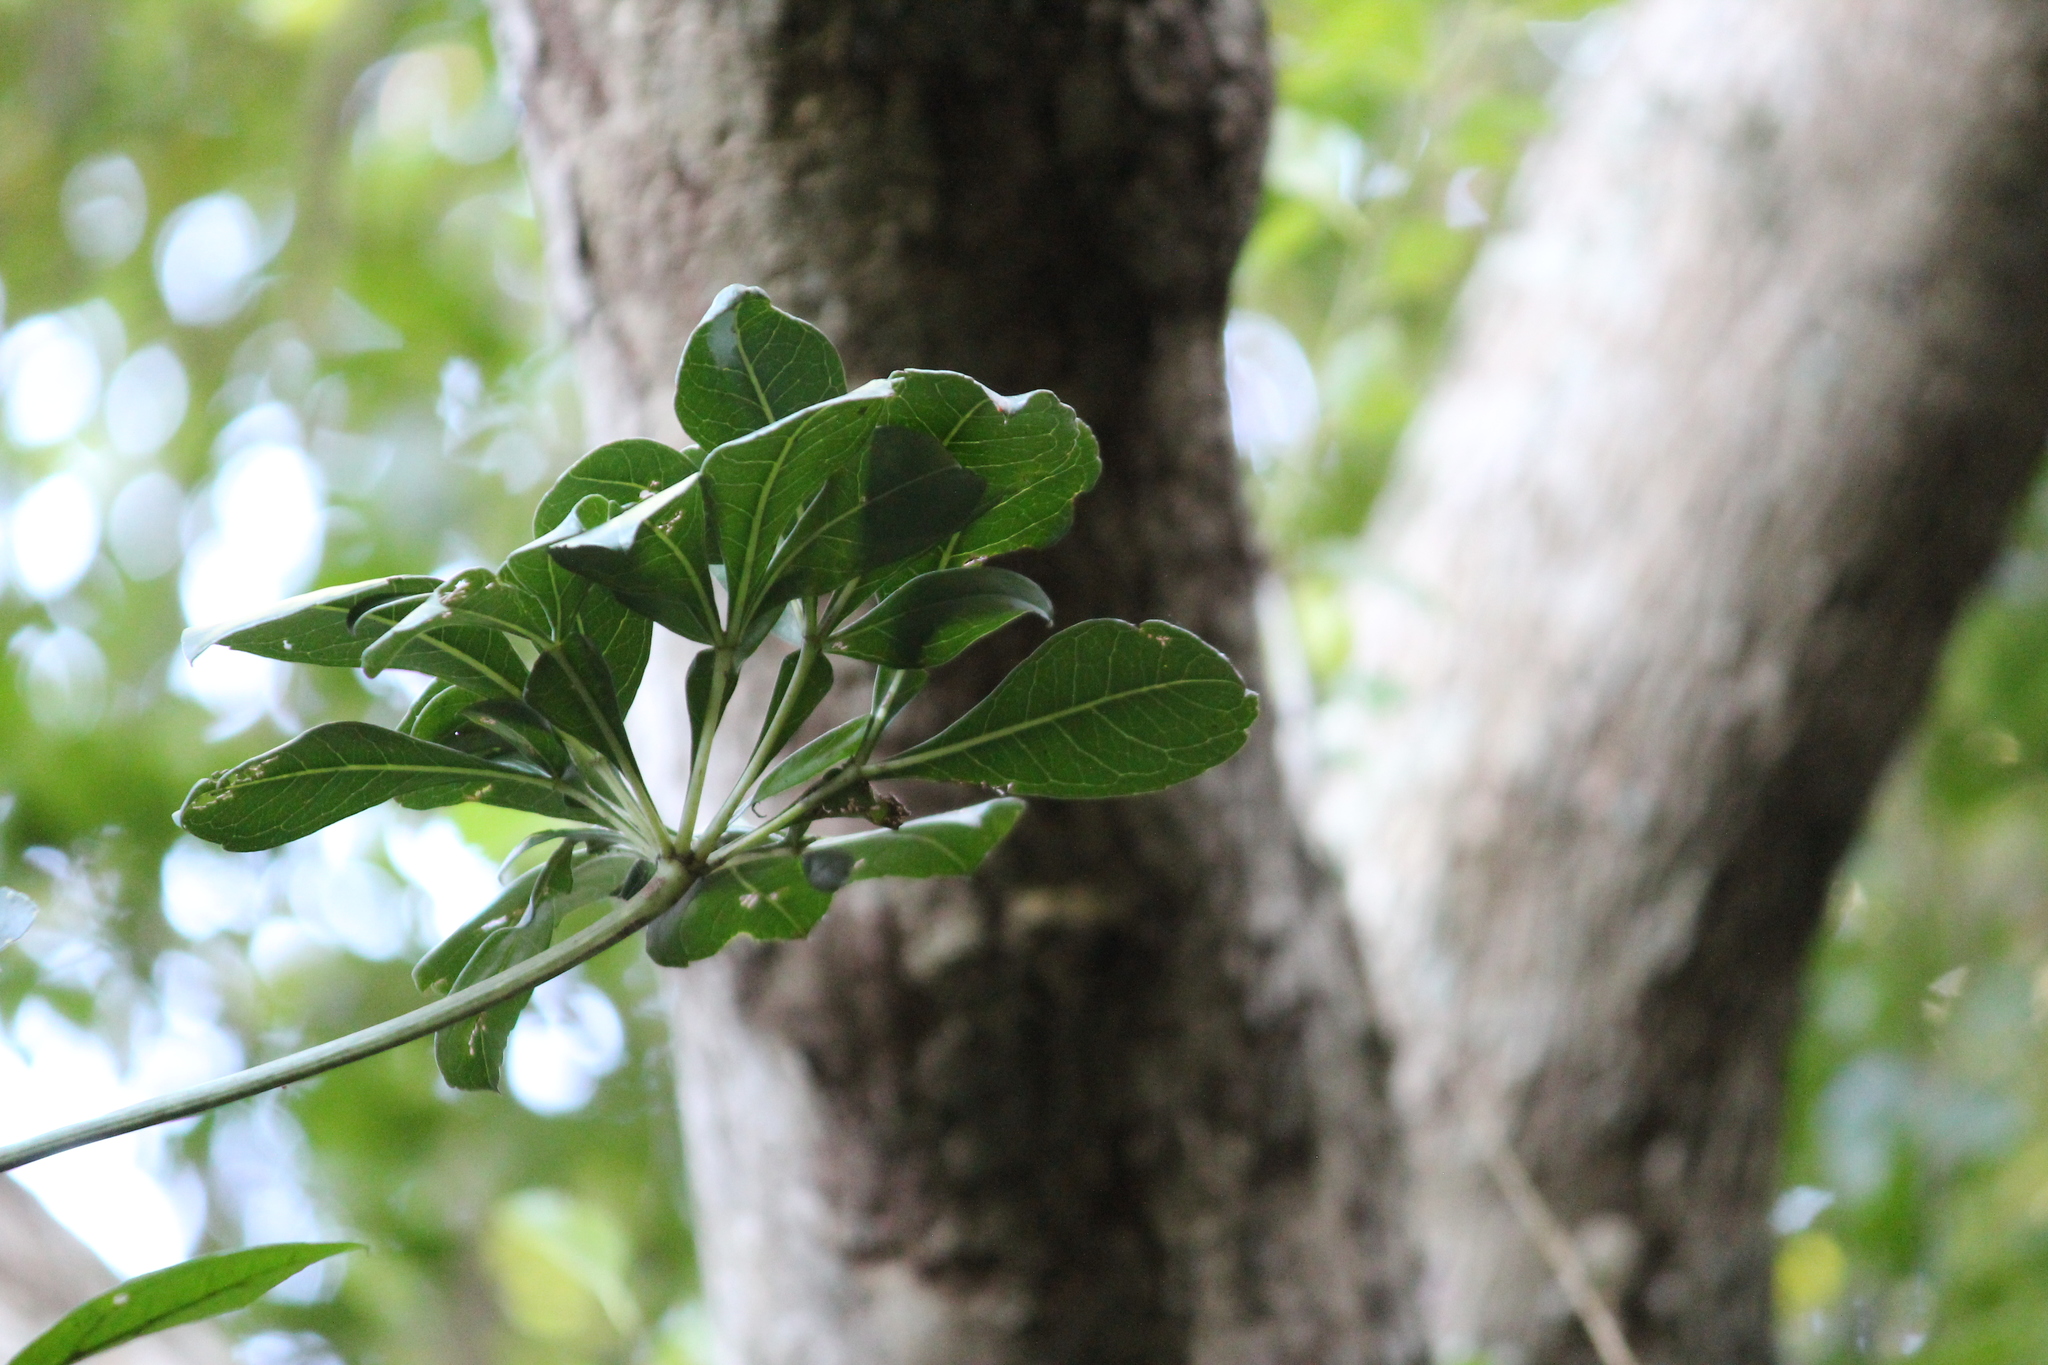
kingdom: Plantae
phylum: Tracheophyta
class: Magnoliopsida
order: Apiales
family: Araliaceae
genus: Cussonia
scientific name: Cussonia spicata
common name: Common cabbagetree
